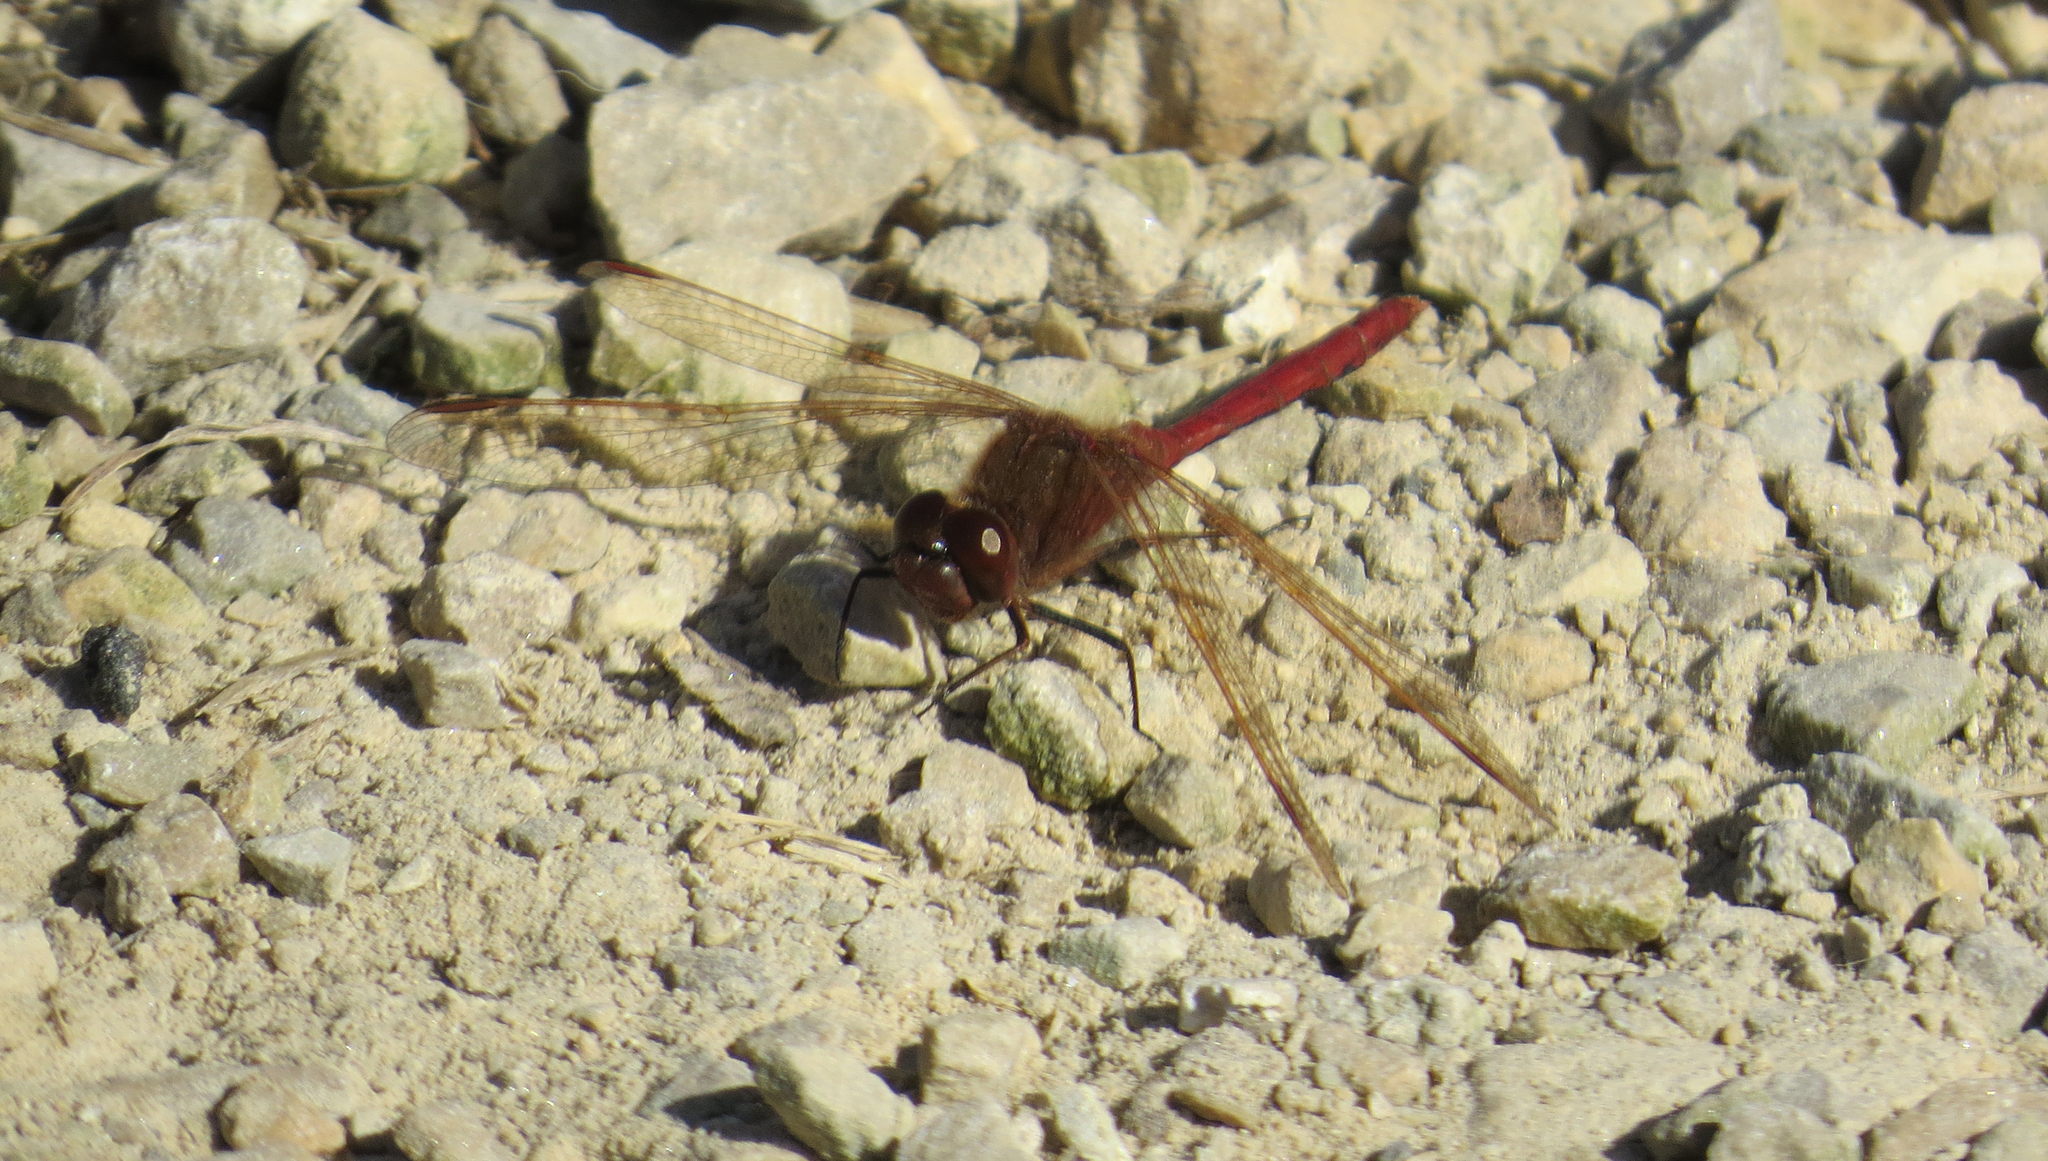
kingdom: Animalia
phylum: Arthropoda
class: Insecta
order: Odonata
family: Libellulidae
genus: Sympetrum
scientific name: Sympetrum costiferum
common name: Saffron-winged meadowhawk
